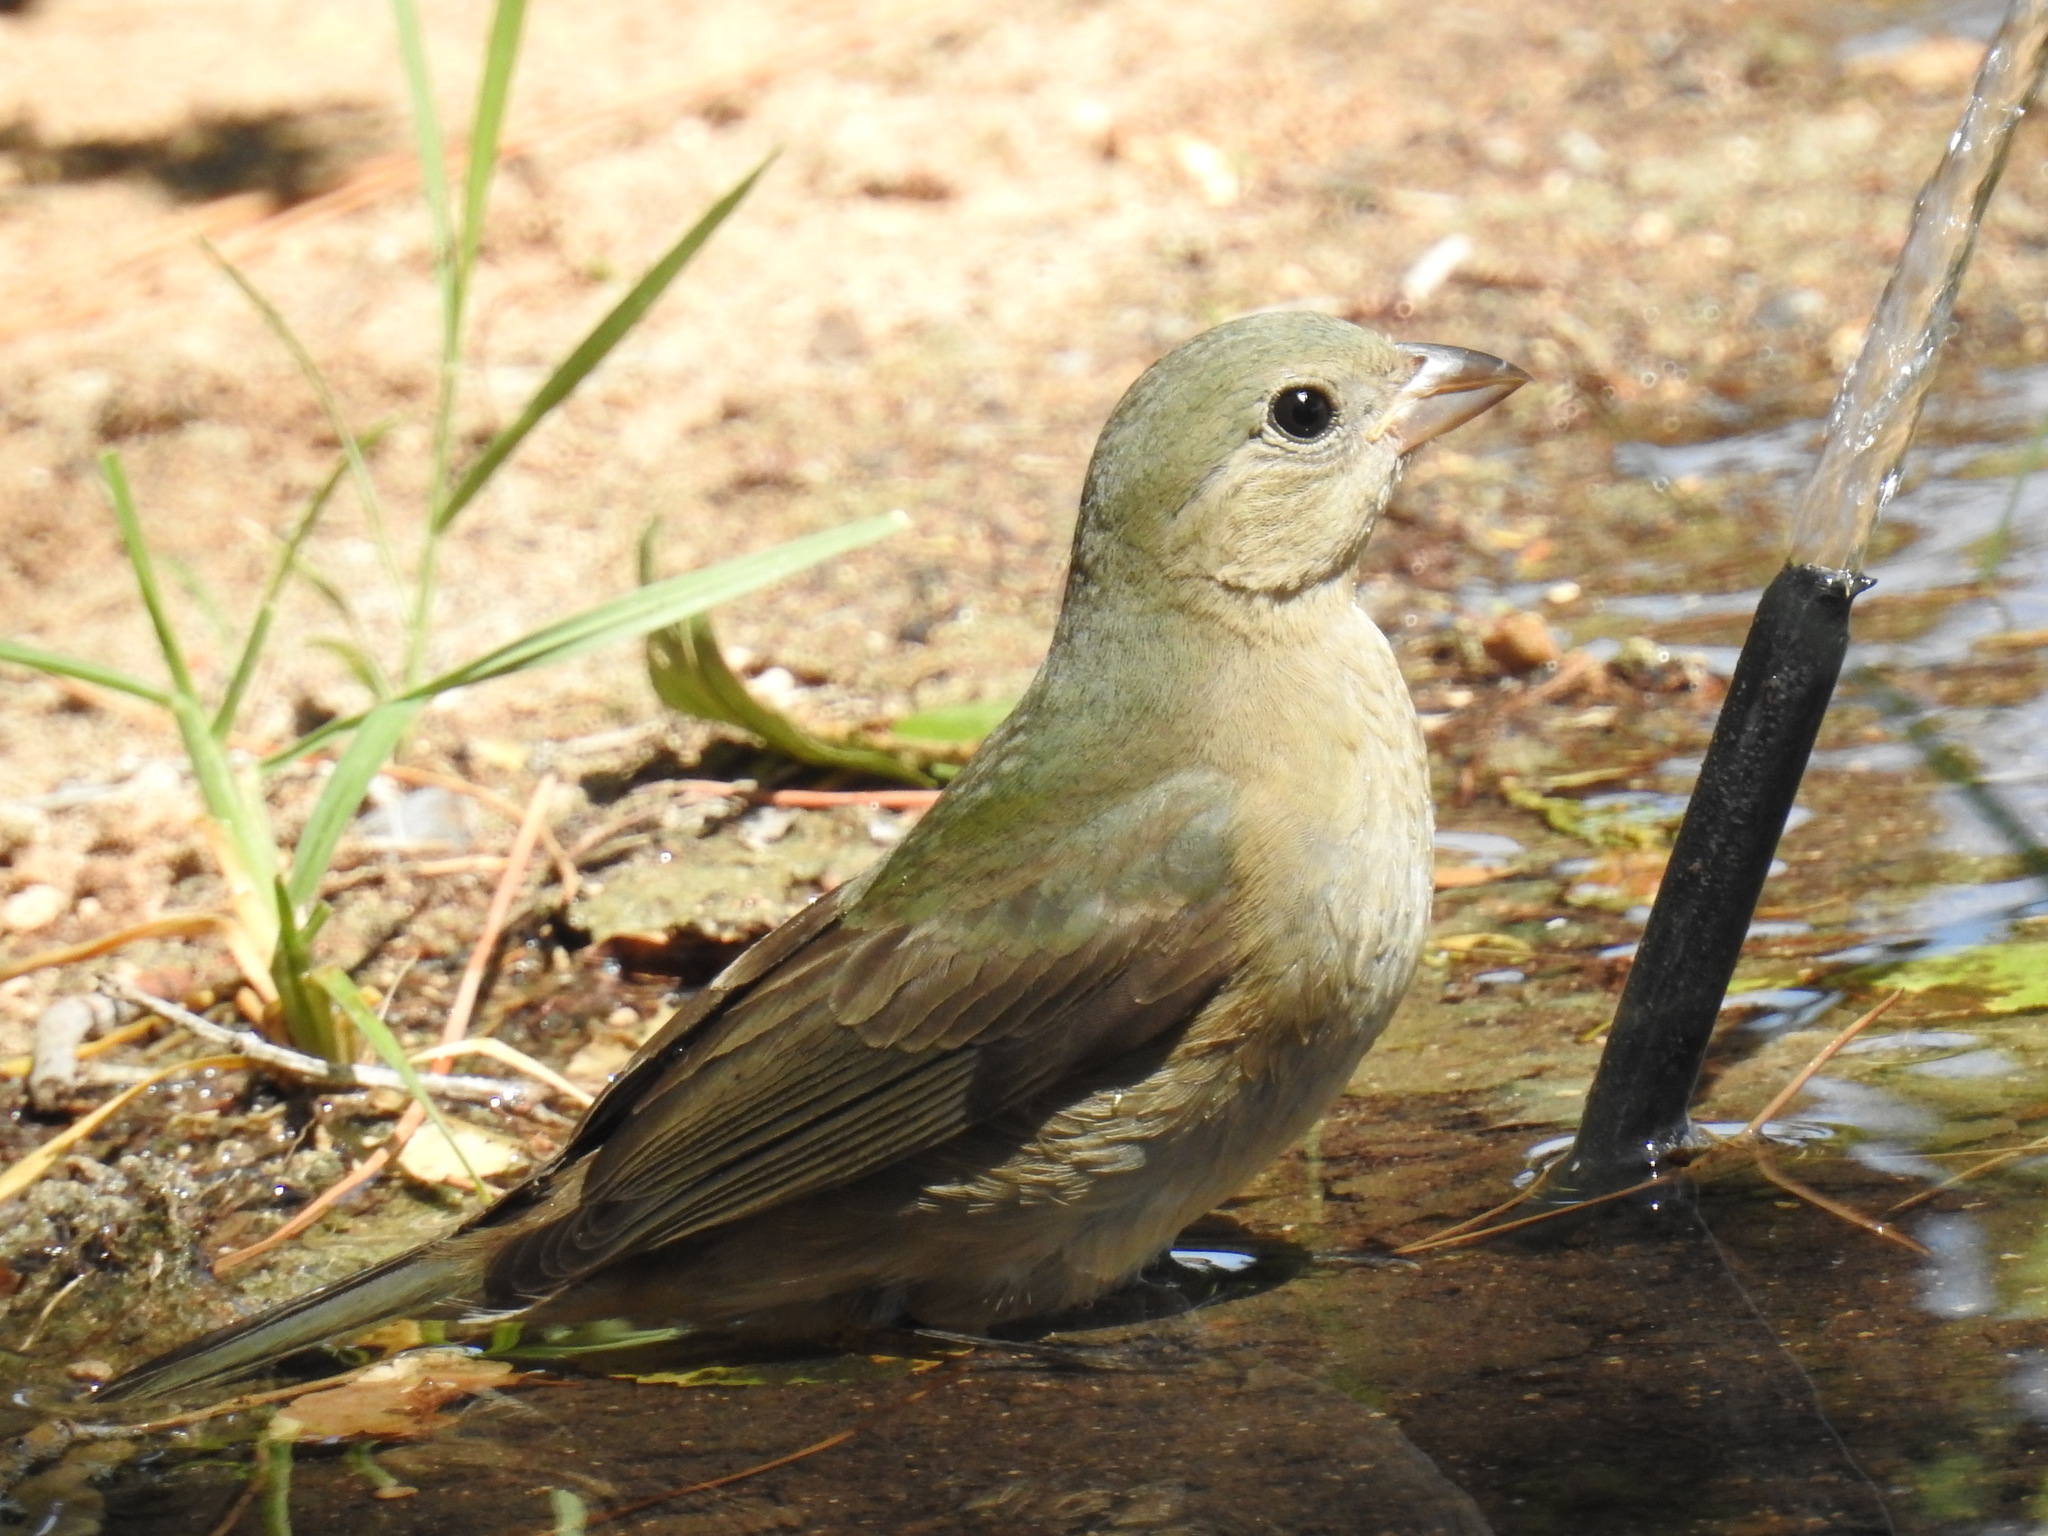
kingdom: Animalia
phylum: Chordata
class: Aves
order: Passeriformes
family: Cardinalidae
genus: Passerina
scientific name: Passerina ciris
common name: Painted bunting
